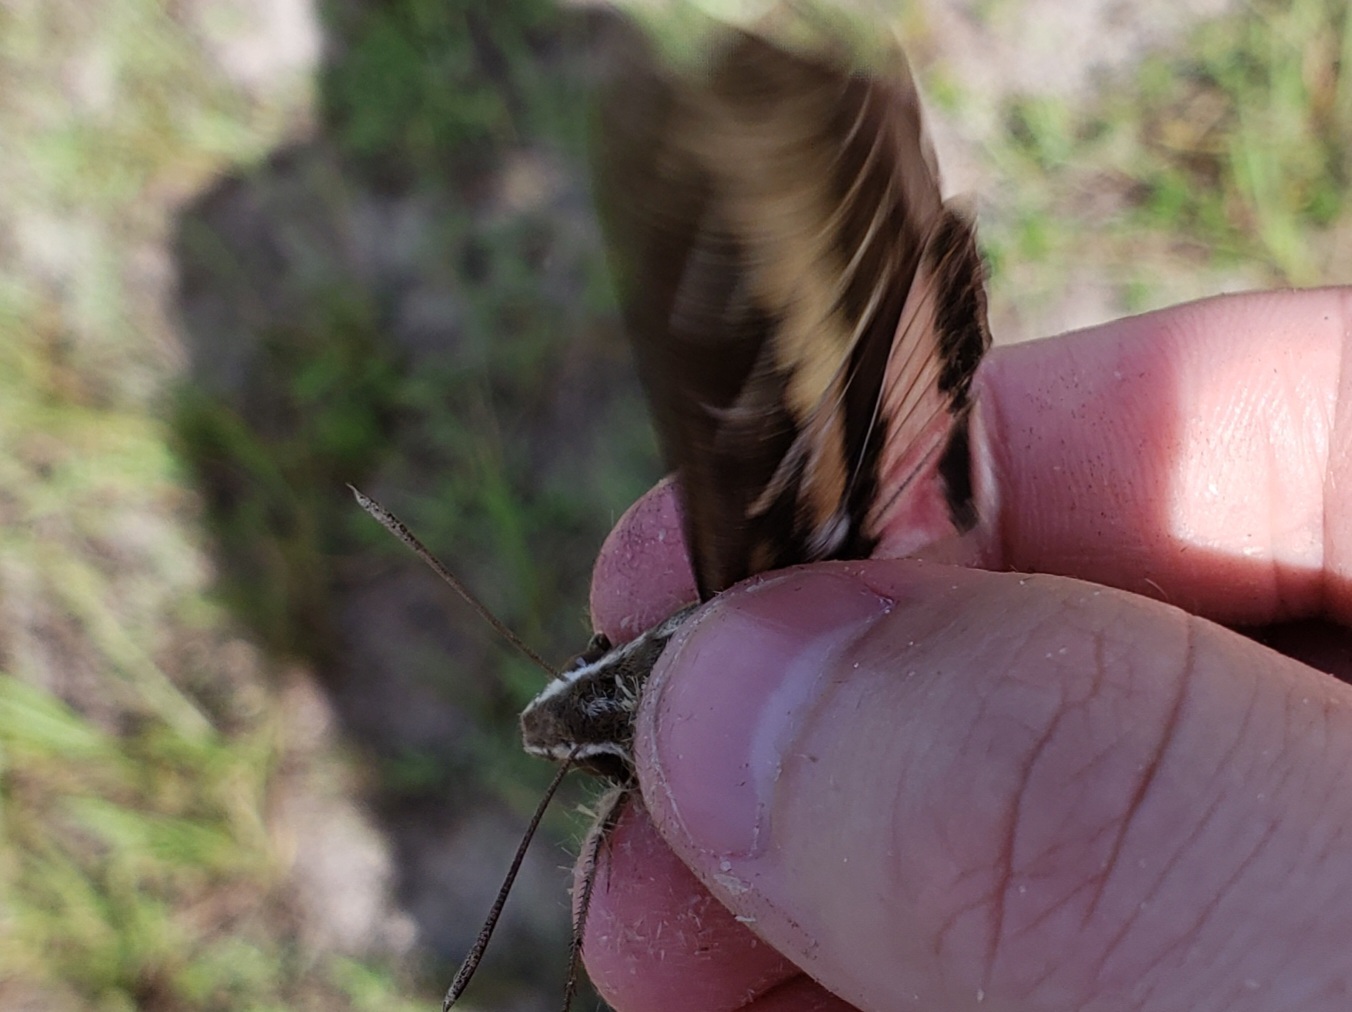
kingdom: Animalia
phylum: Arthropoda
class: Insecta
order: Lepidoptera
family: Sphingidae
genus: Hyles
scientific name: Hyles lineata
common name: White-lined sphinx
